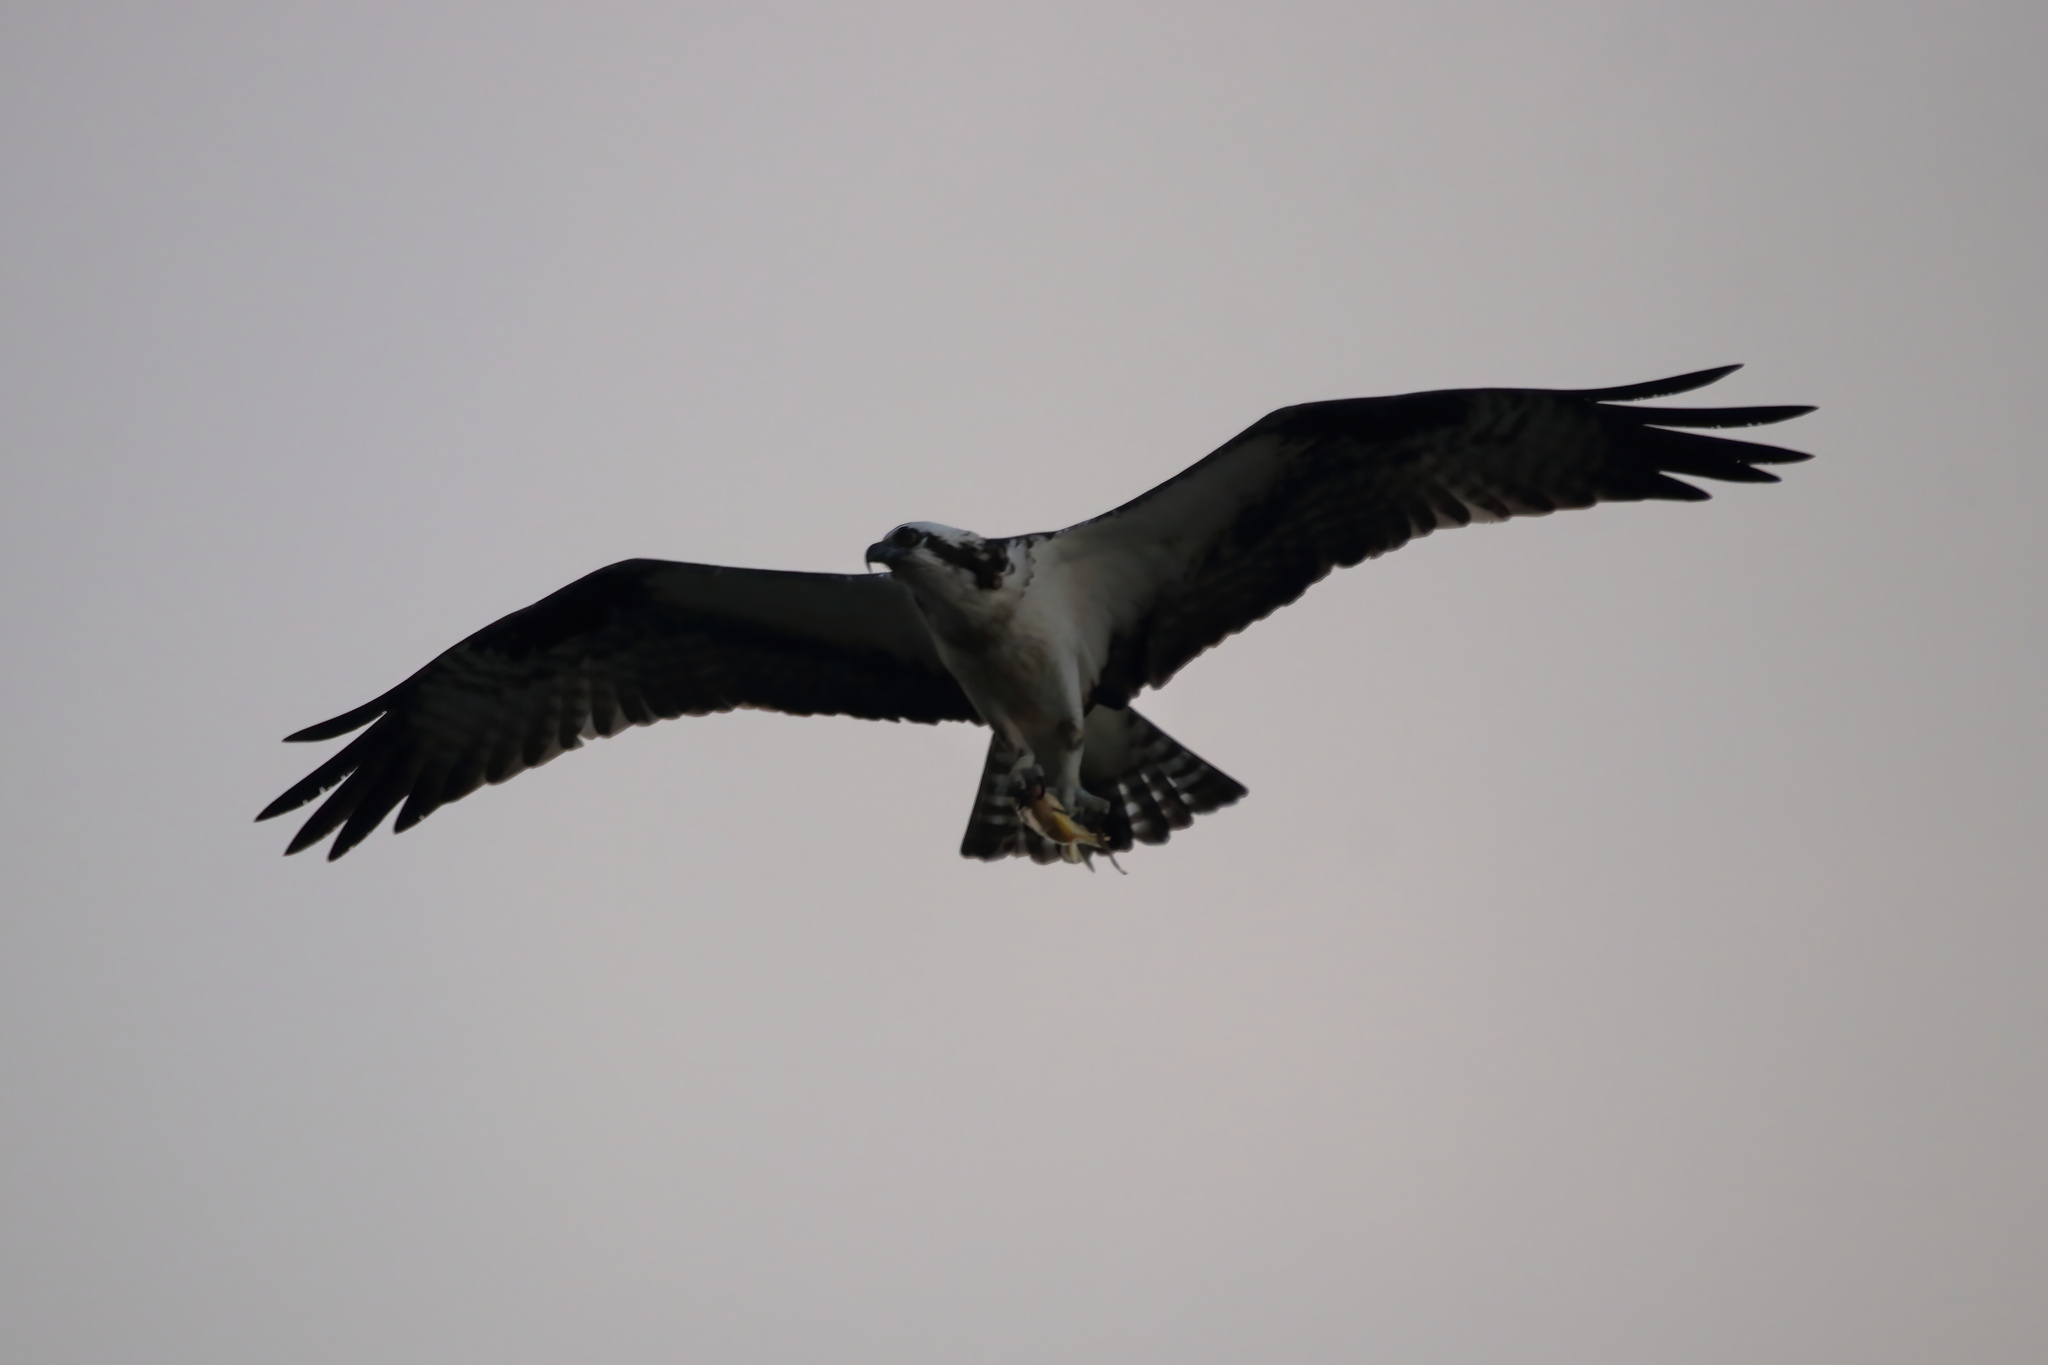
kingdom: Animalia
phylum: Chordata
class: Aves
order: Accipitriformes
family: Pandionidae
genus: Pandion
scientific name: Pandion haliaetus
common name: Osprey
